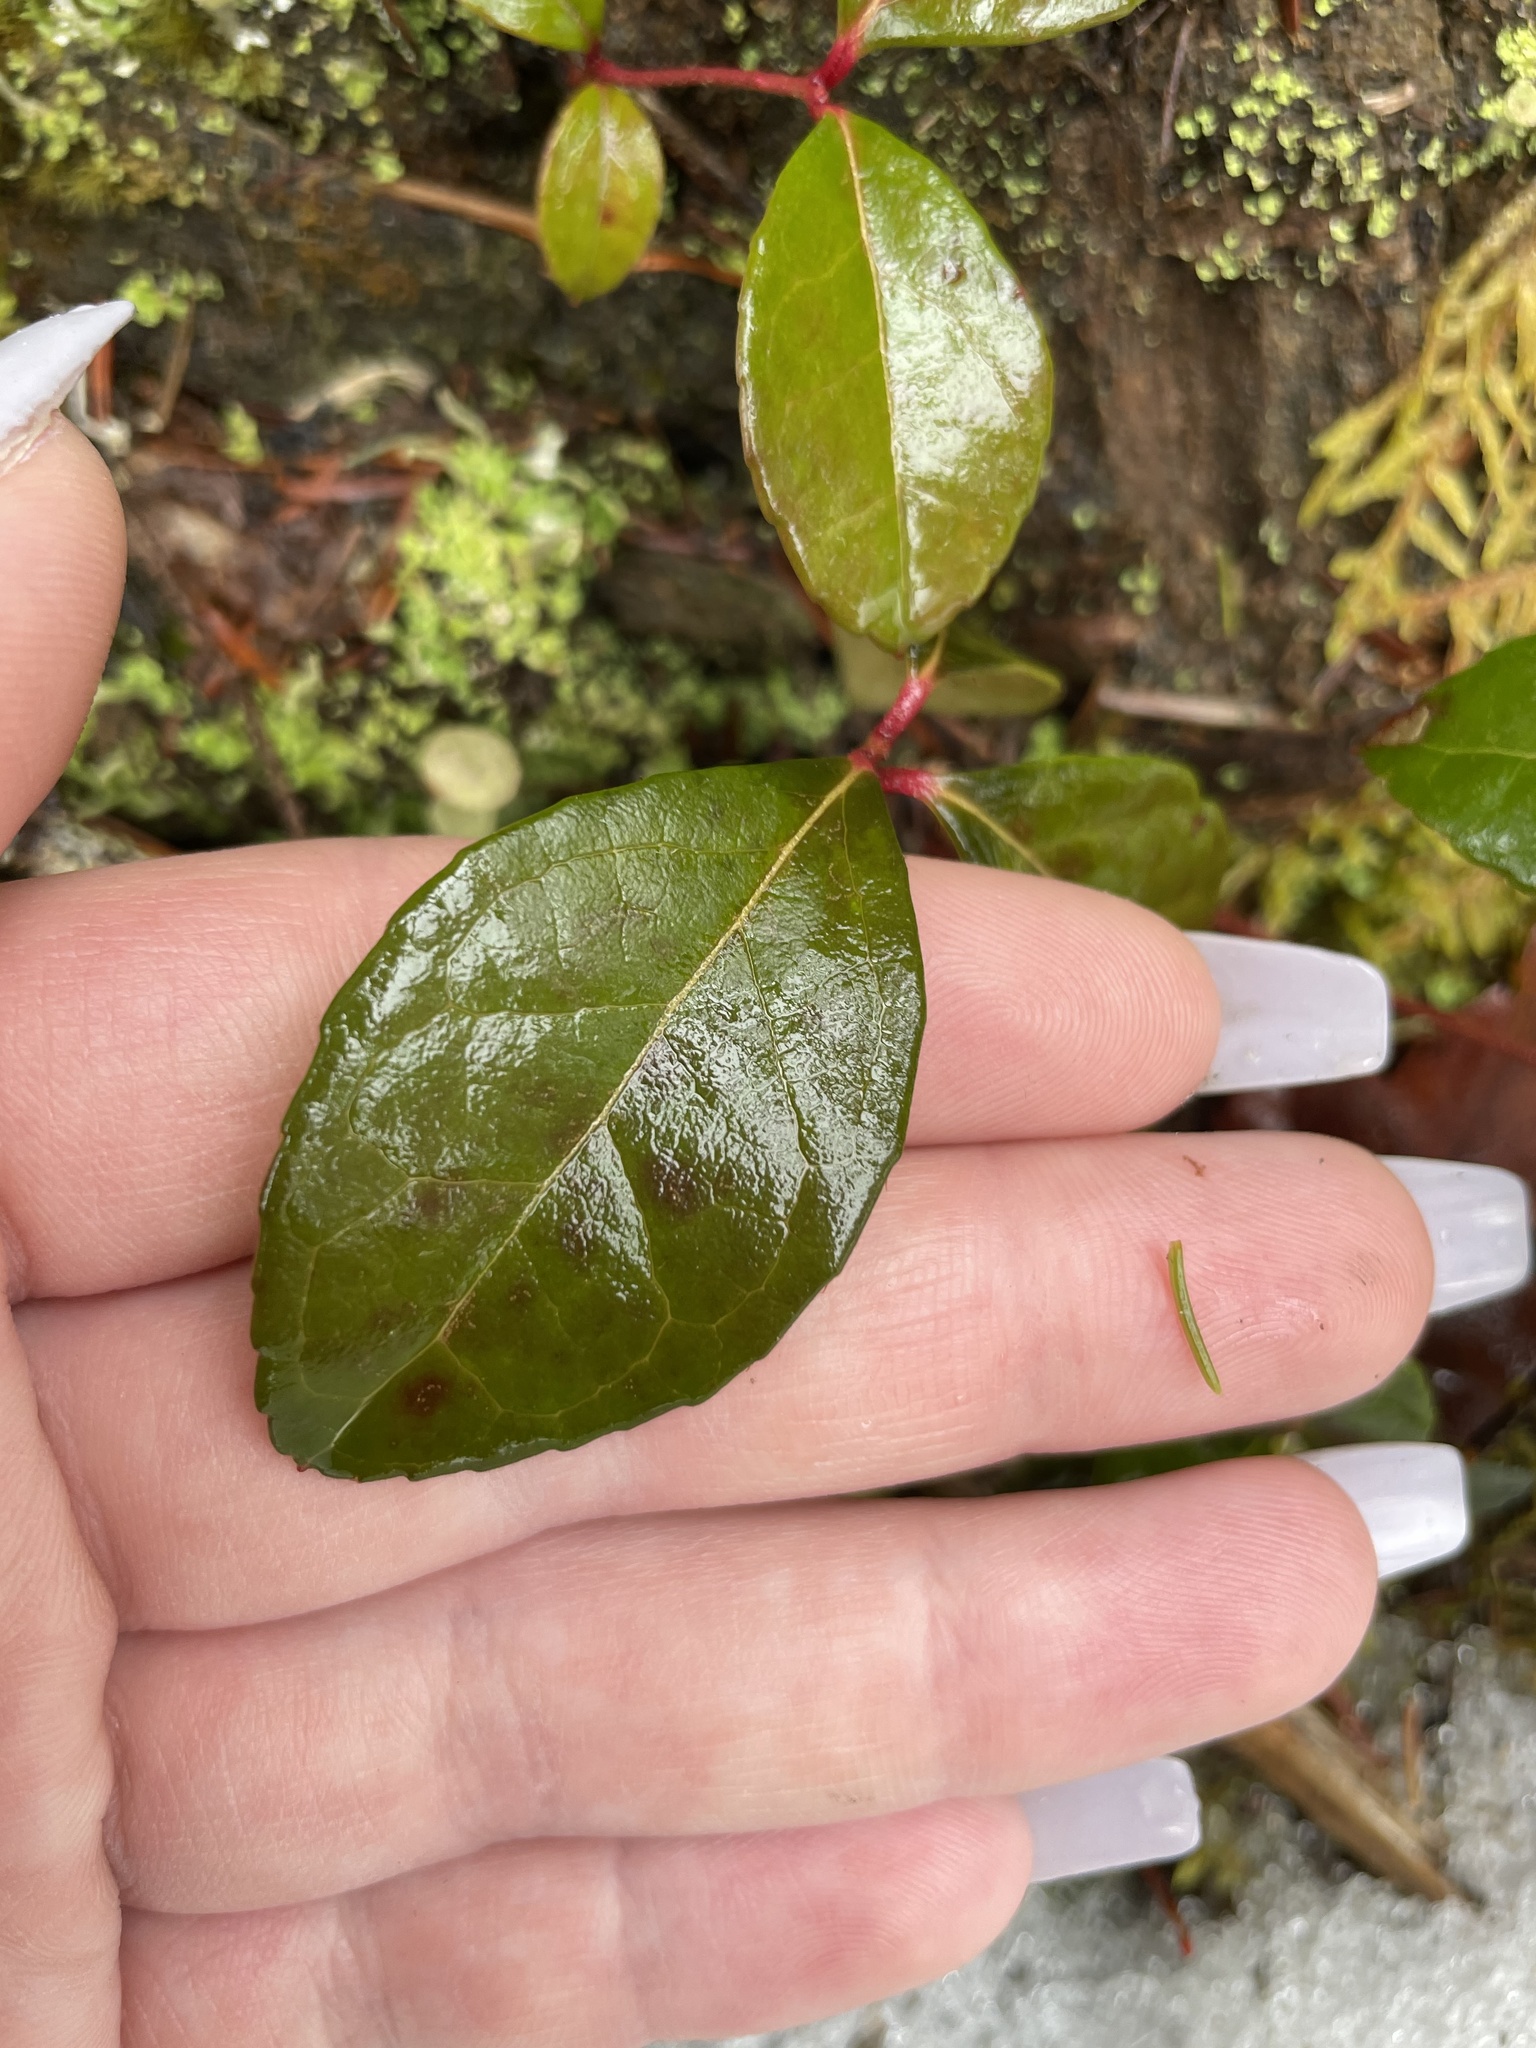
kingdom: Plantae
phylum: Tracheophyta
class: Magnoliopsida
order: Ericales
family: Ericaceae
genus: Gaultheria
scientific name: Gaultheria procumbens
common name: Checkerberry
